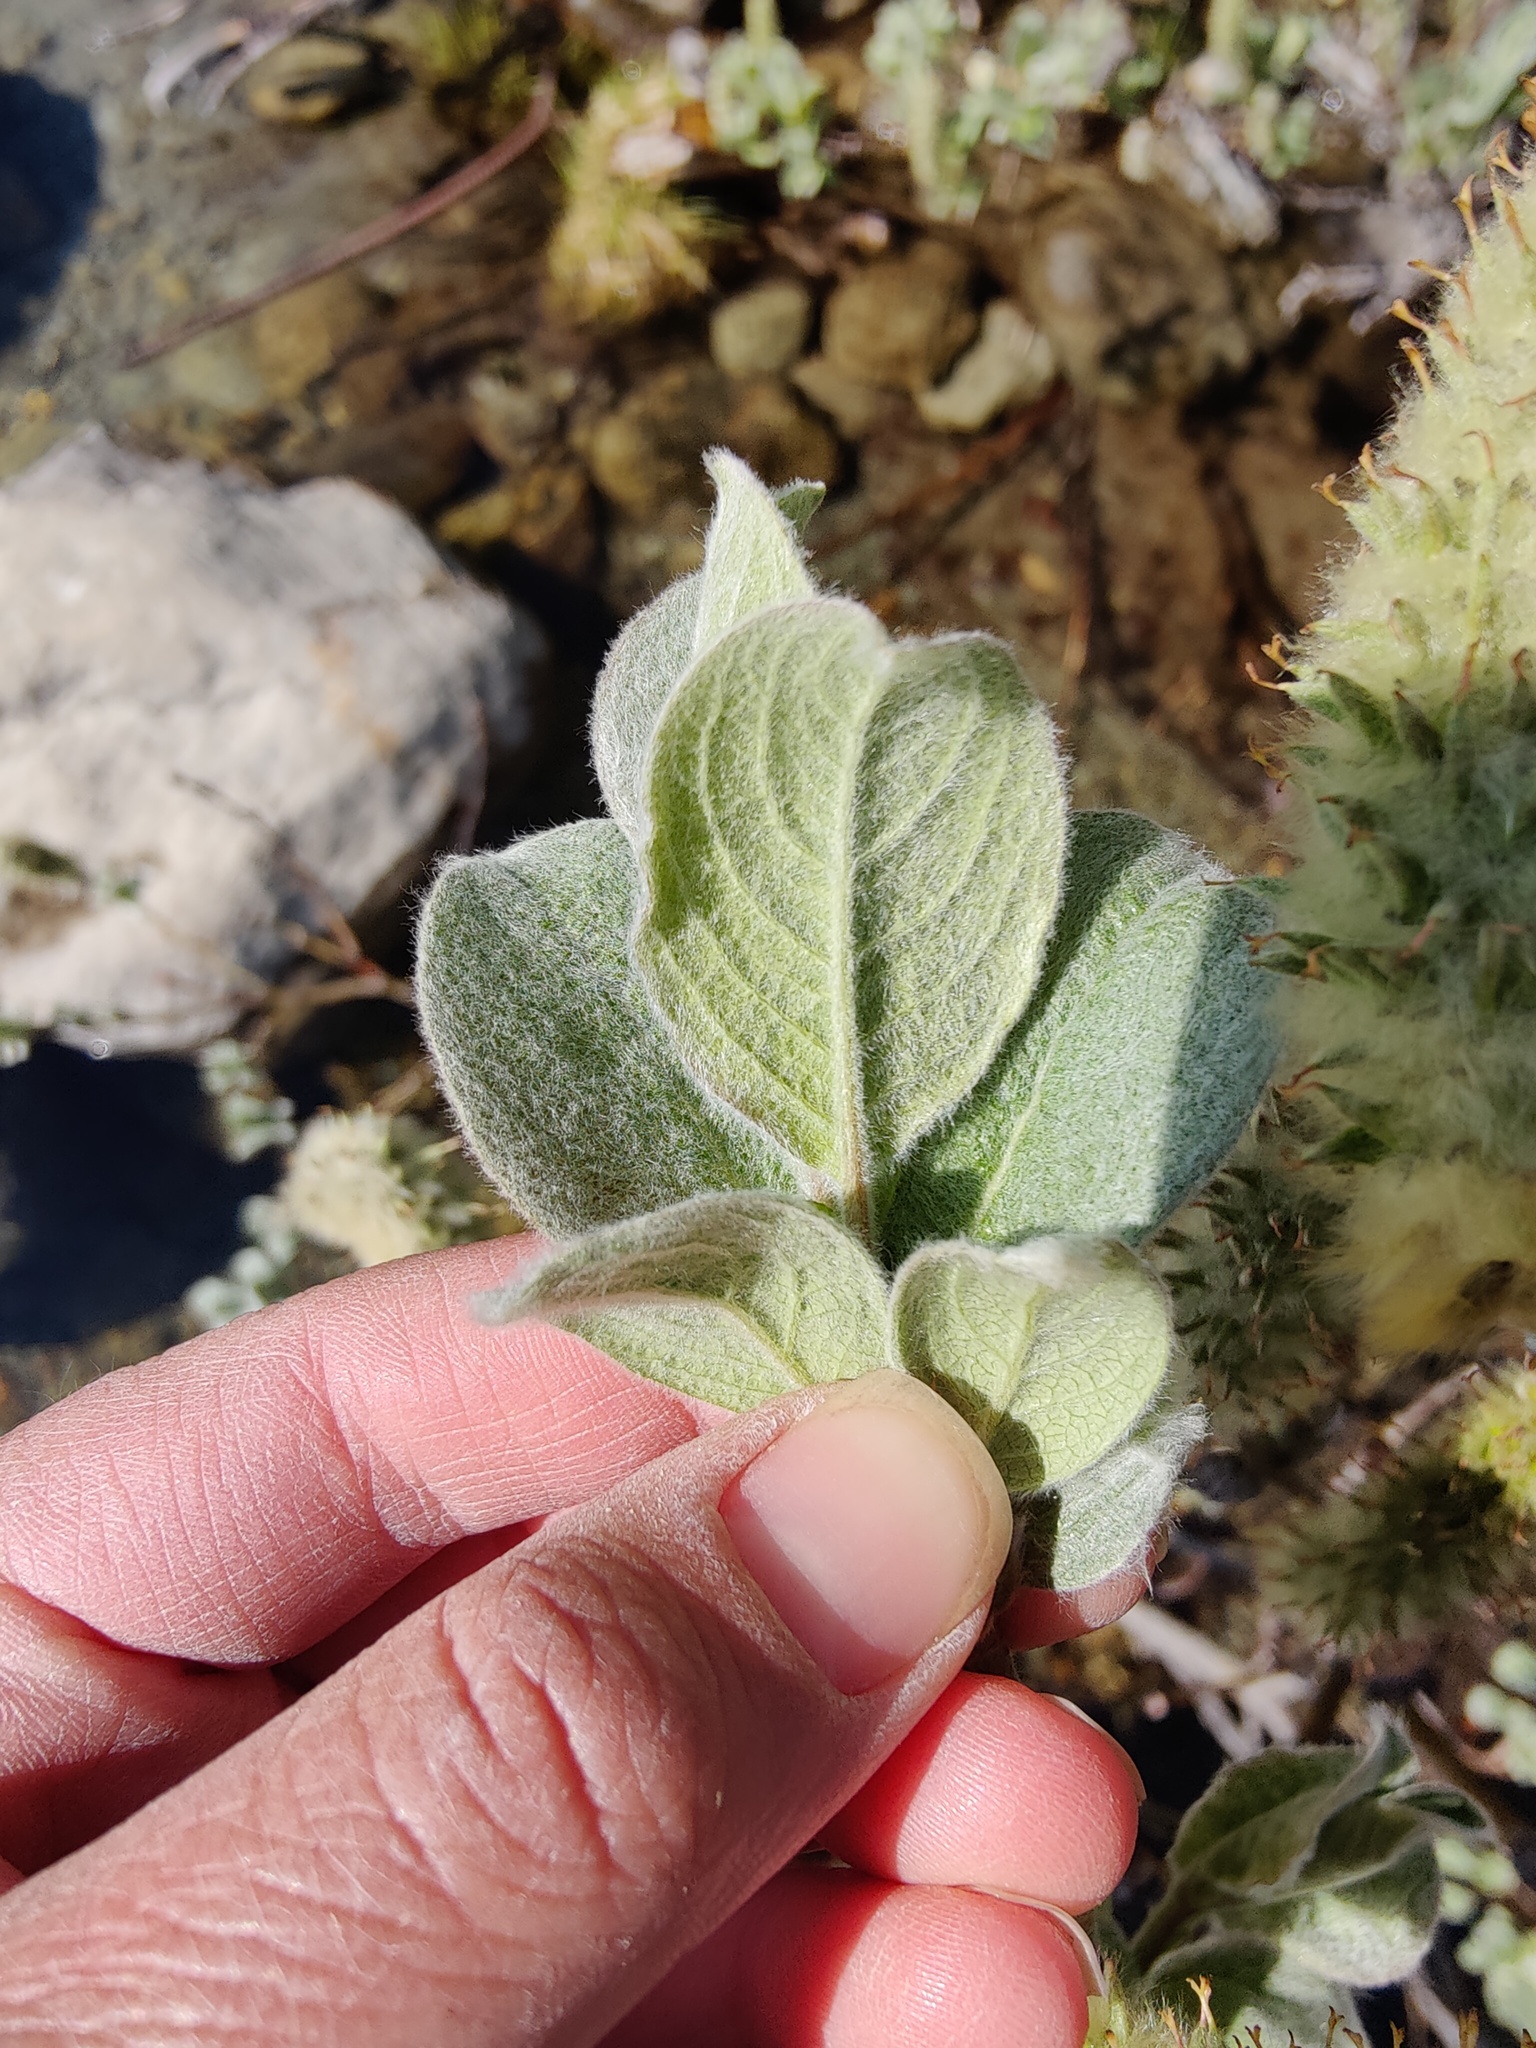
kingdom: Plantae
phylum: Tracheophyta
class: Magnoliopsida
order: Malpighiales
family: Salicaceae
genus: Salix
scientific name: Salix lanata
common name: Woolly willow
